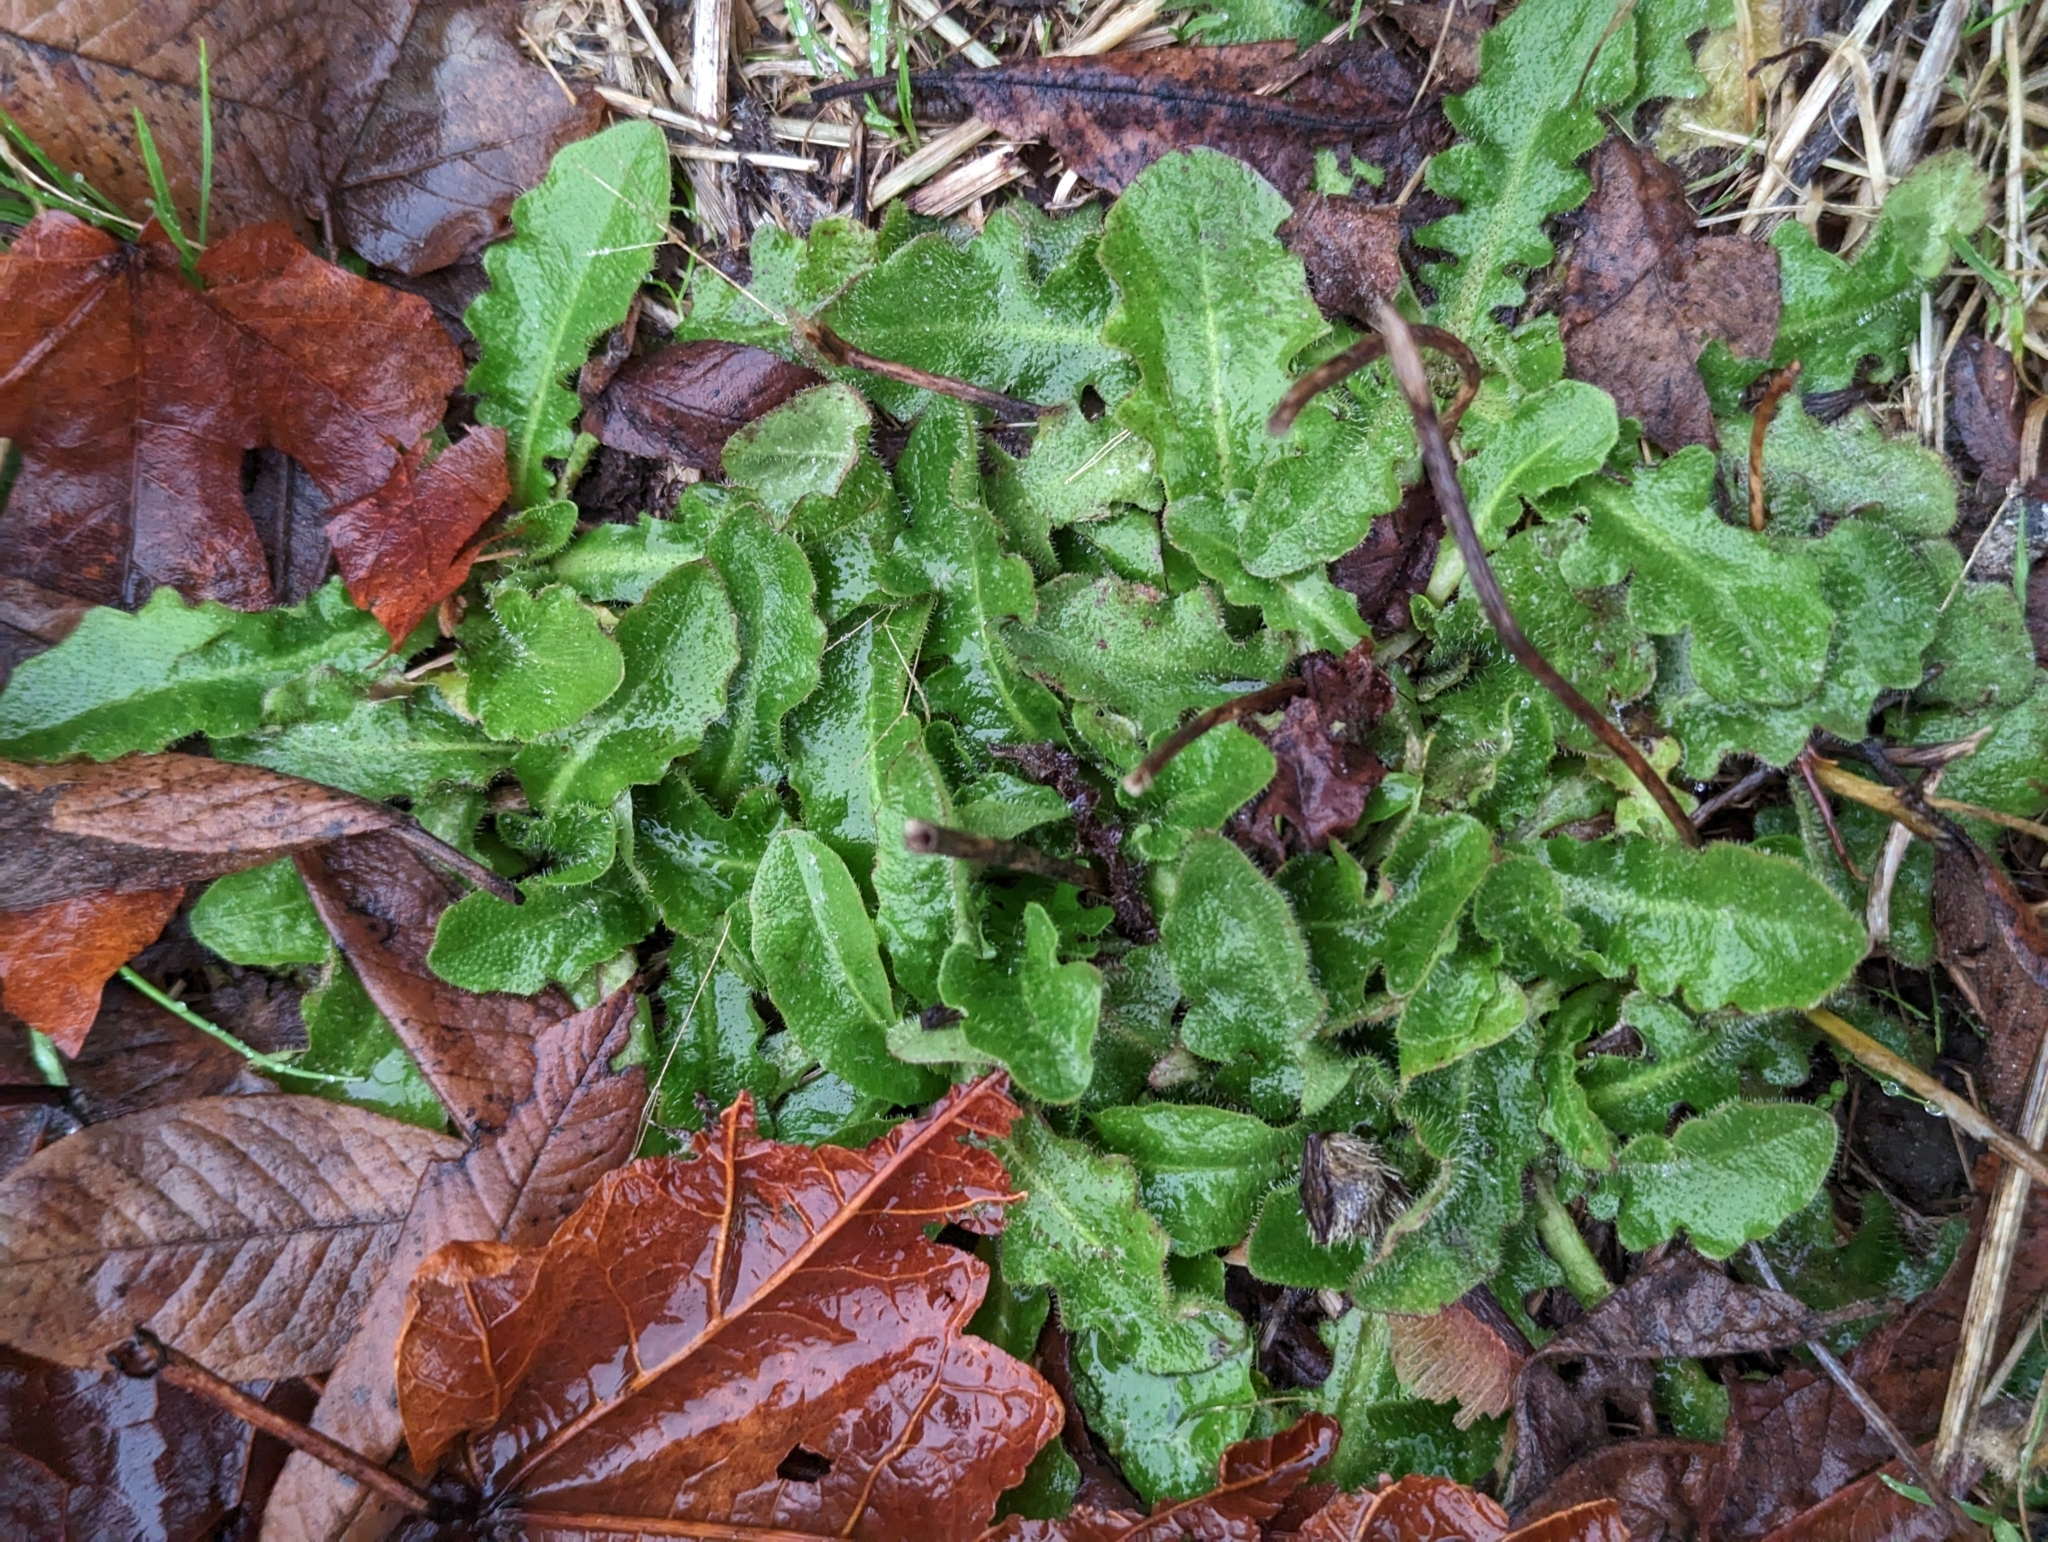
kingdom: Plantae
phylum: Tracheophyta
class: Magnoliopsida
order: Asterales
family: Asteraceae
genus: Hypochaeris
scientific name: Hypochaeris radicata
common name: Flatweed
